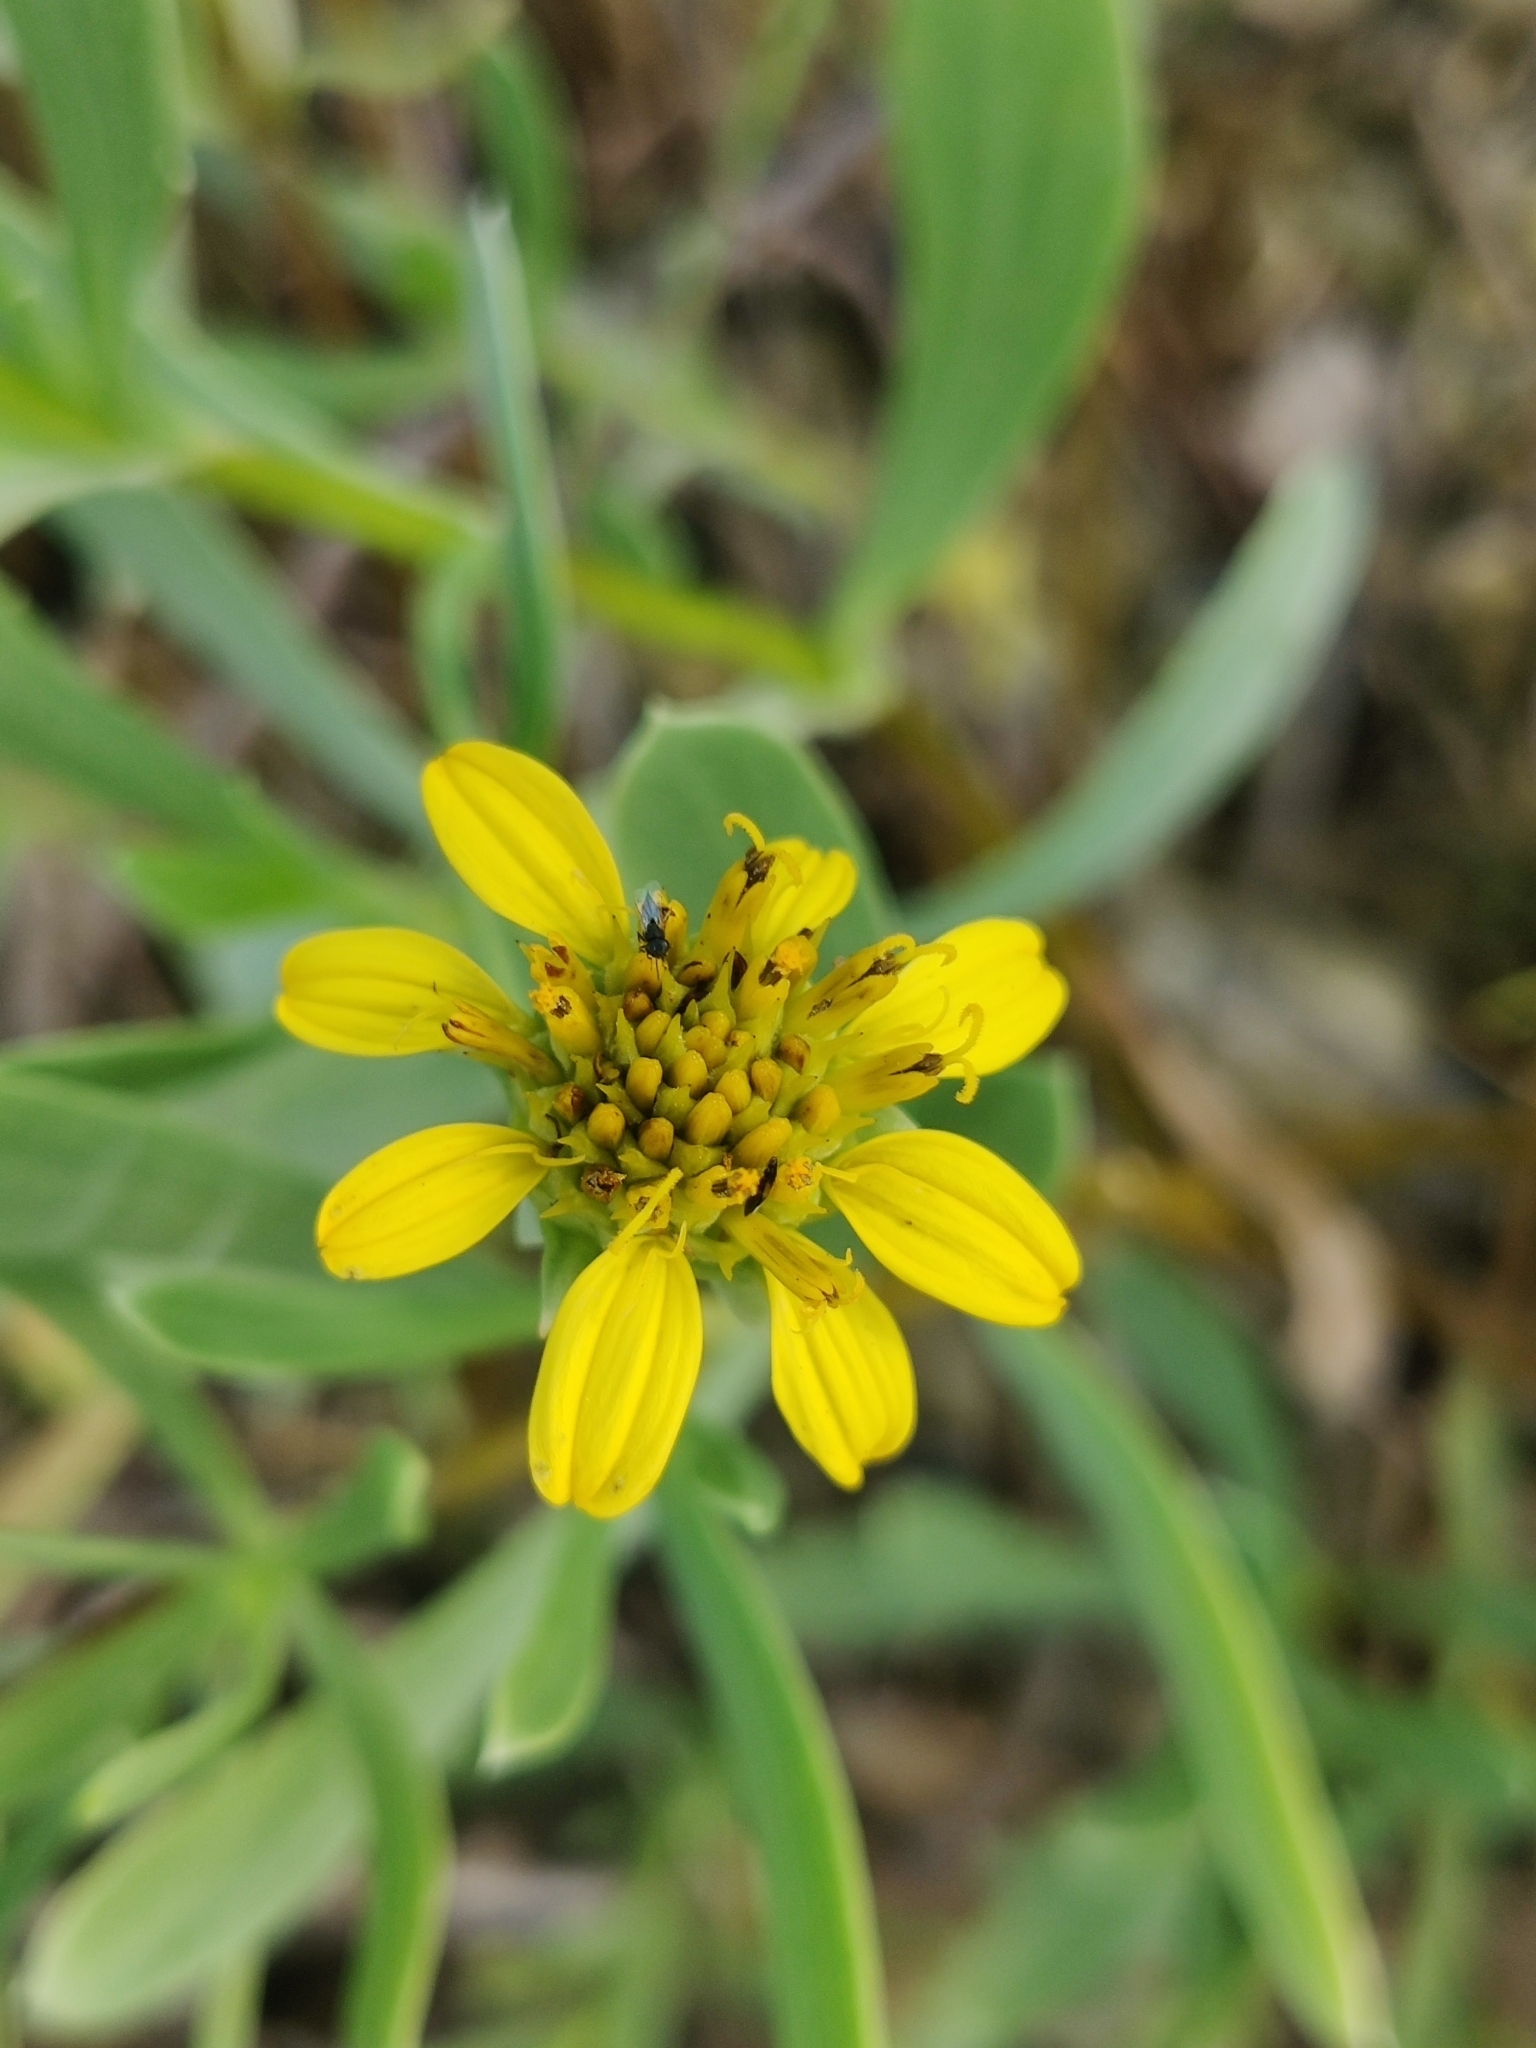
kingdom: Plantae
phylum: Tracheophyta
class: Magnoliopsida
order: Asterales
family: Asteraceae
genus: Borrichia
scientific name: Borrichia frutescens
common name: Sea oxeye
